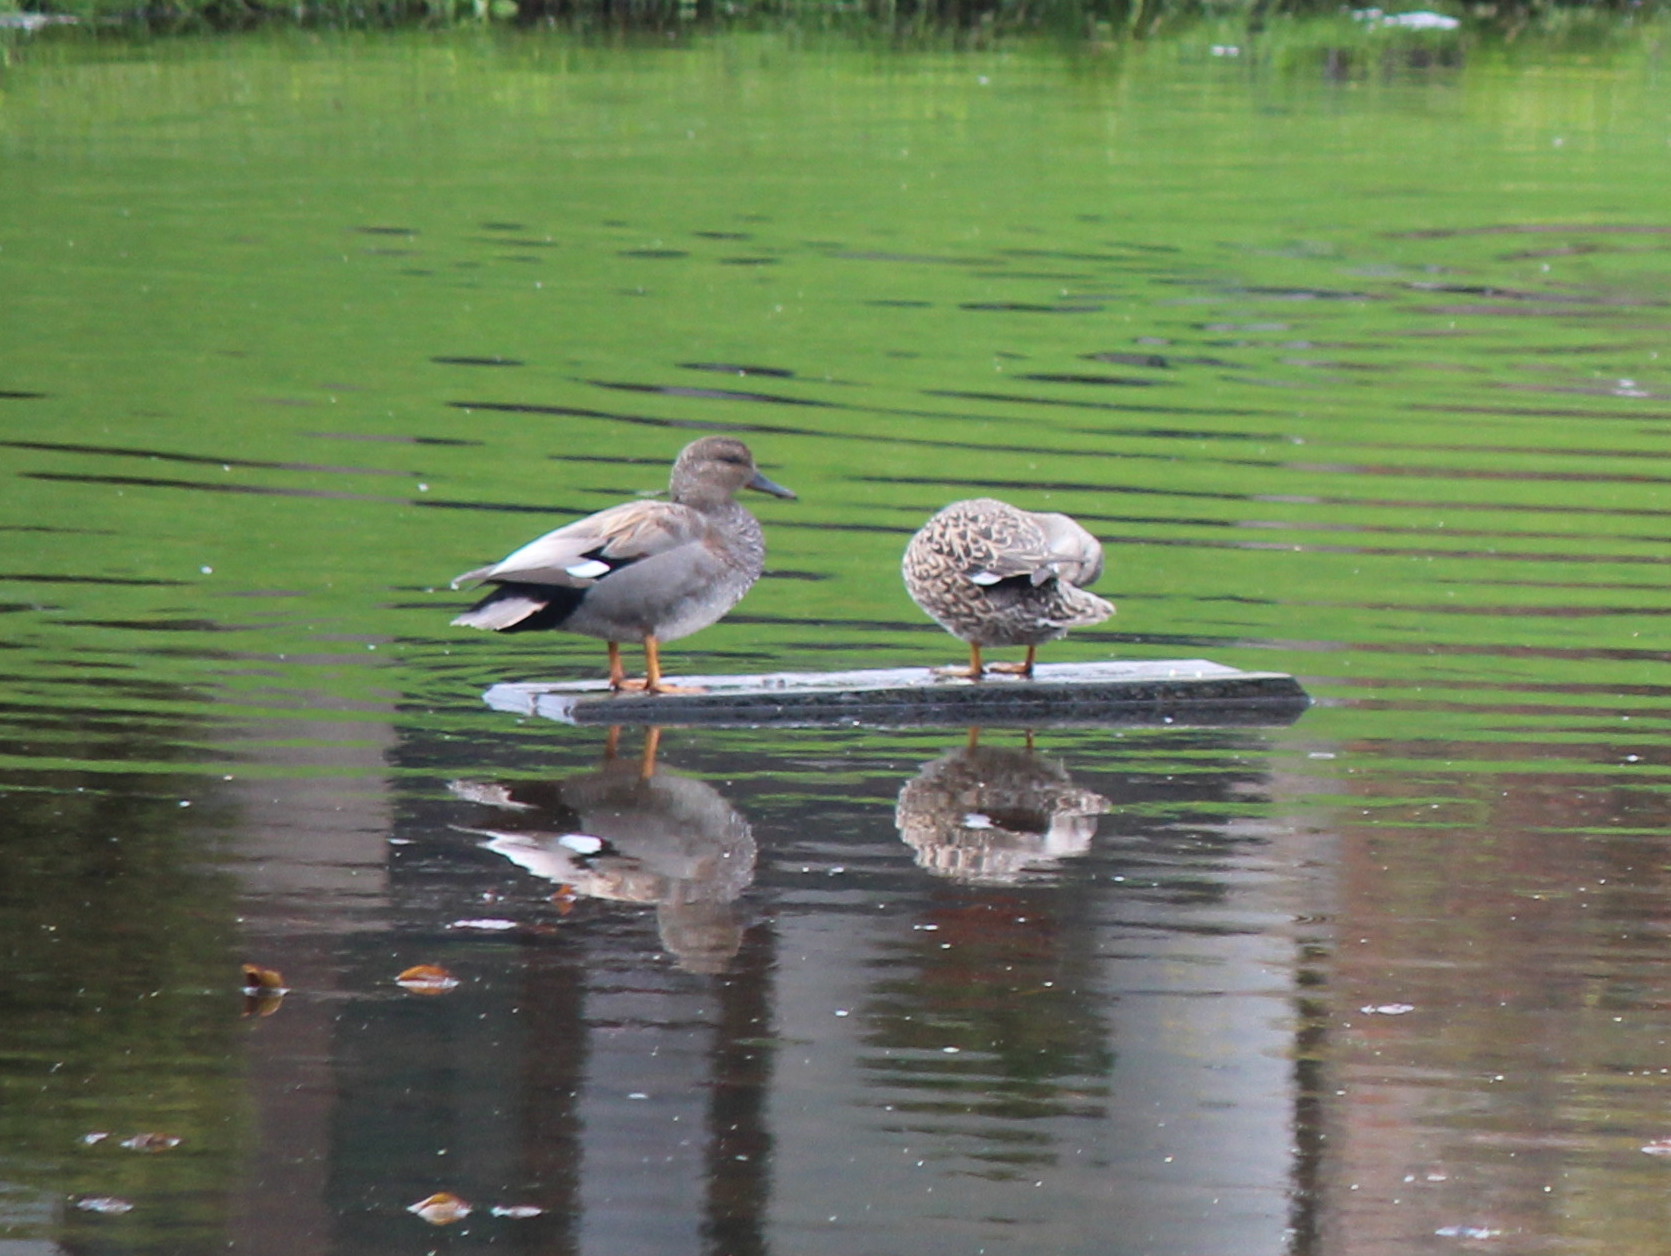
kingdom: Animalia
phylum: Chordata
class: Aves
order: Anseriformes
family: Anatidae
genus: Mareca
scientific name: Mareca strepera
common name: Gadwall
